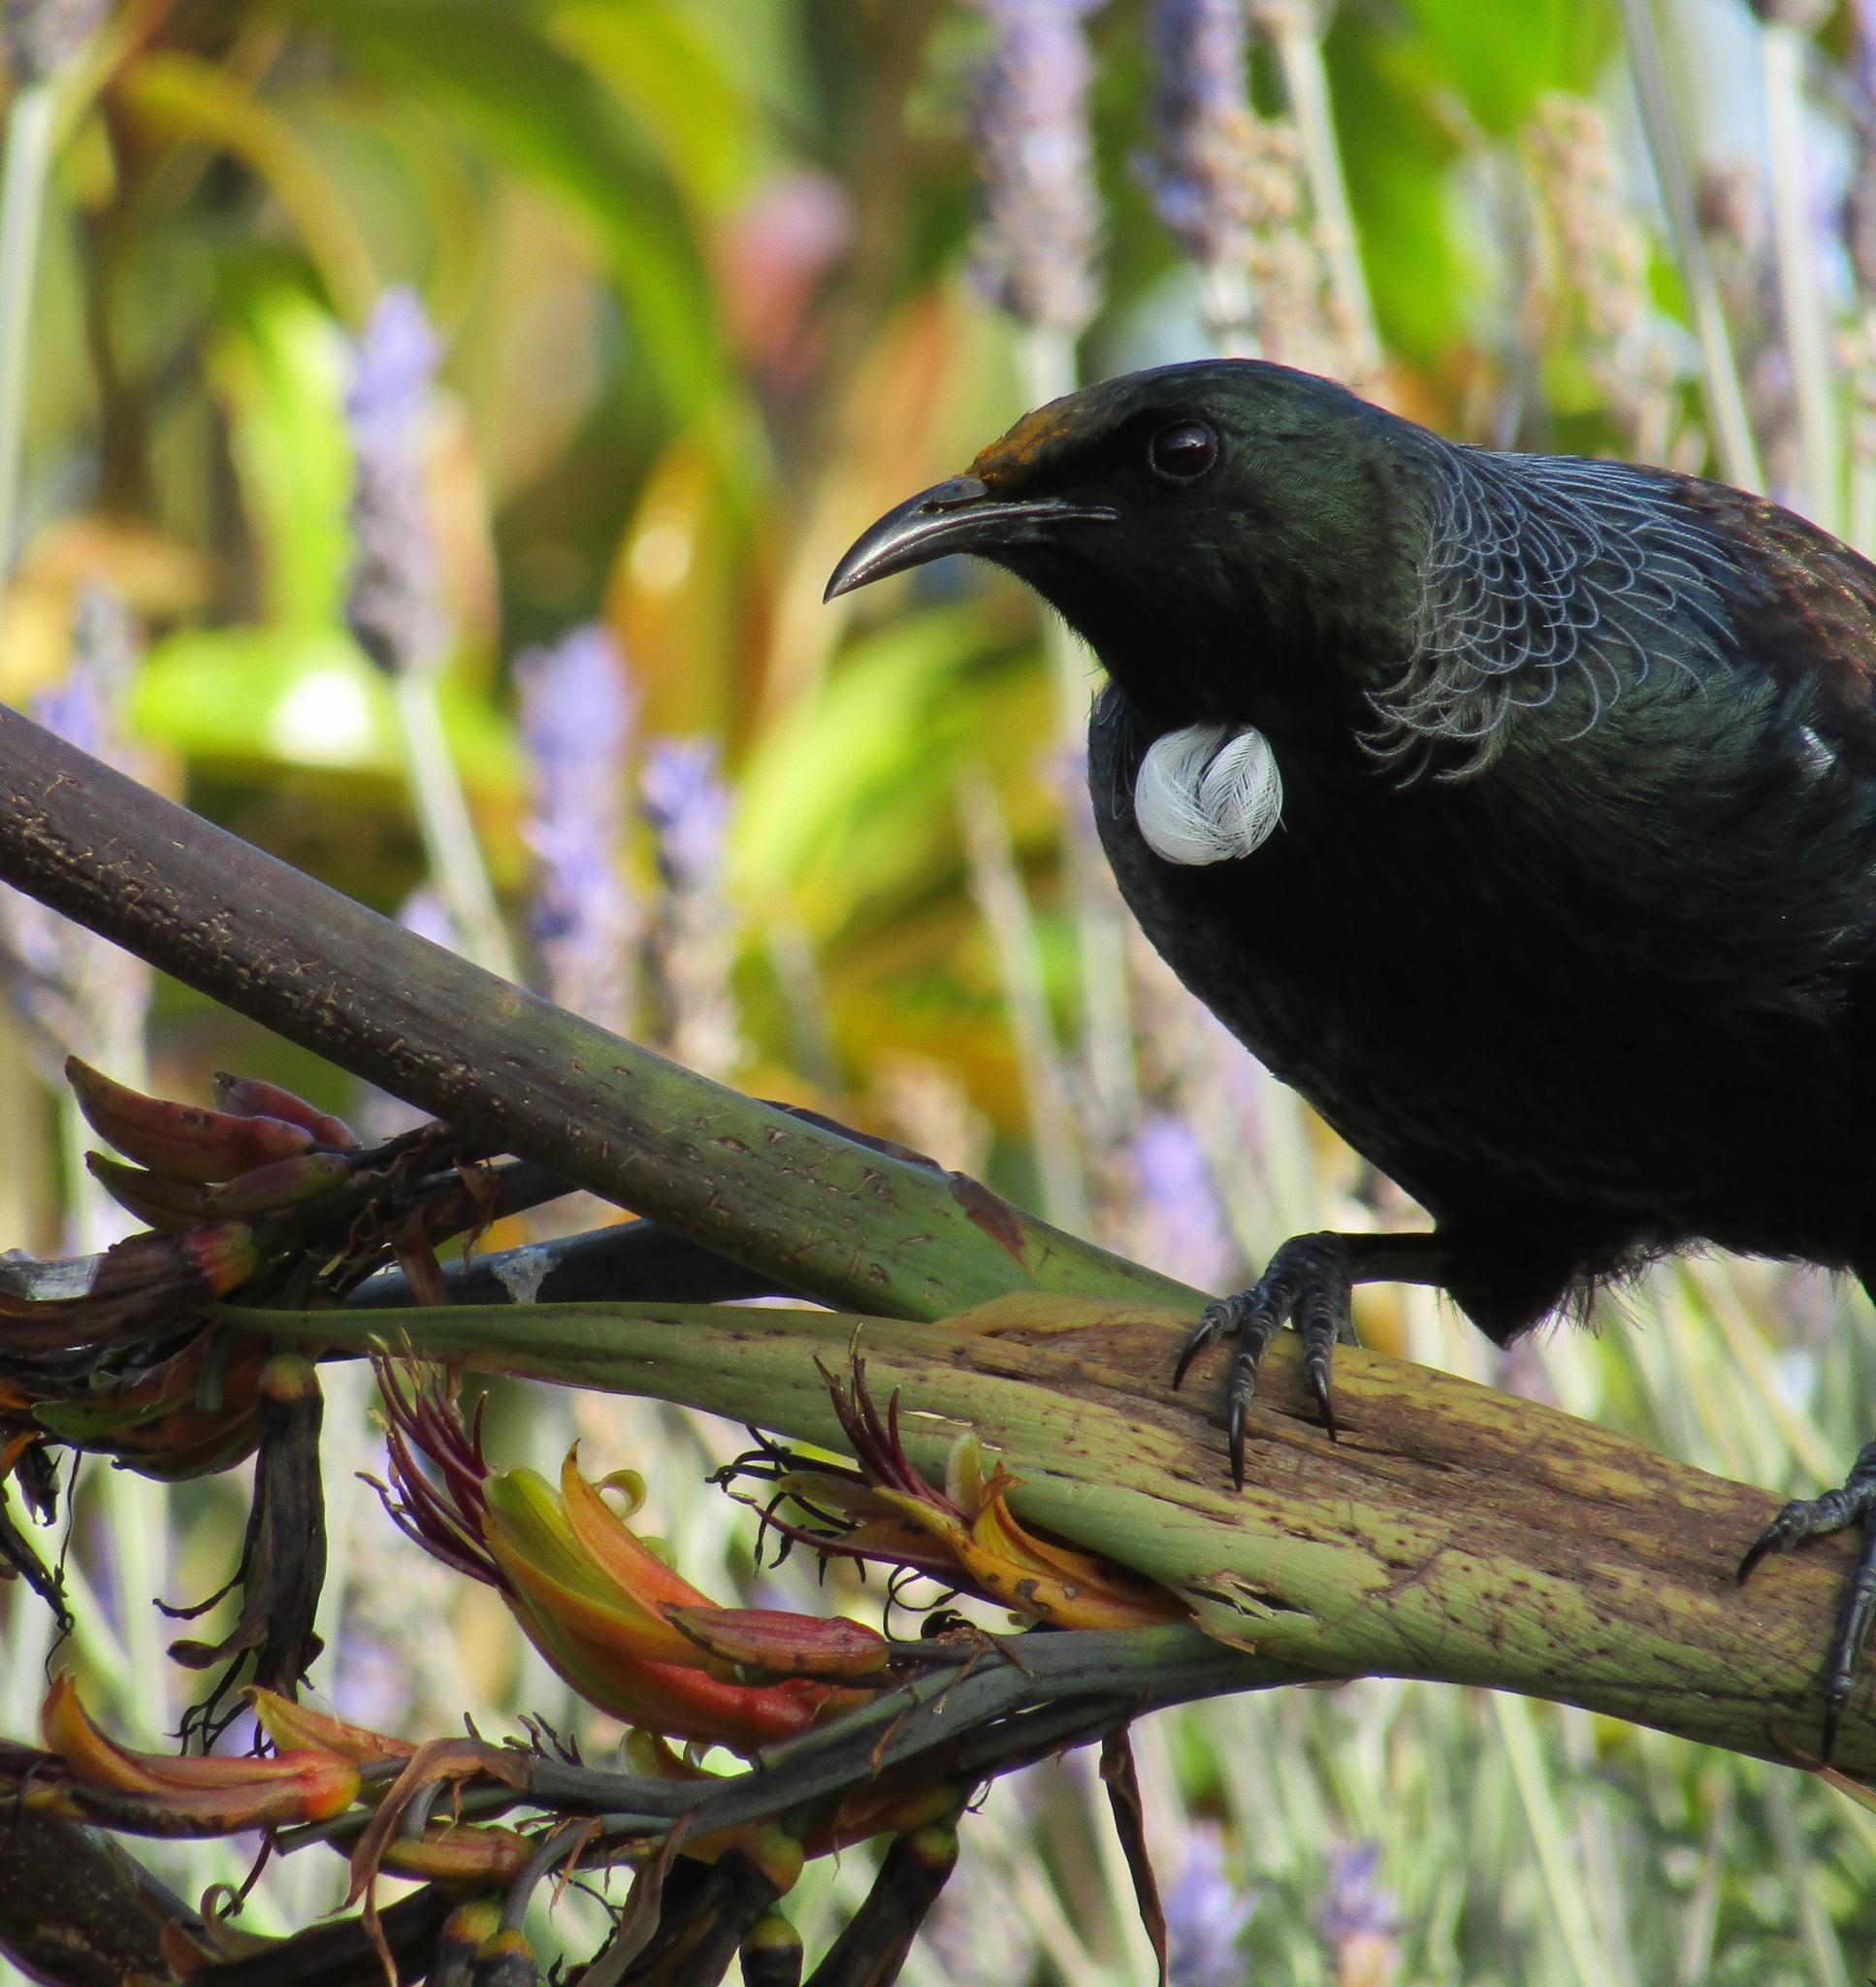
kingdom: Animalia
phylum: Chordata
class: Aves
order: Passeriformes
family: Meliphagidae
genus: Prosthemadera
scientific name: Prosthemadera novaeseelandiae
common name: Tui
